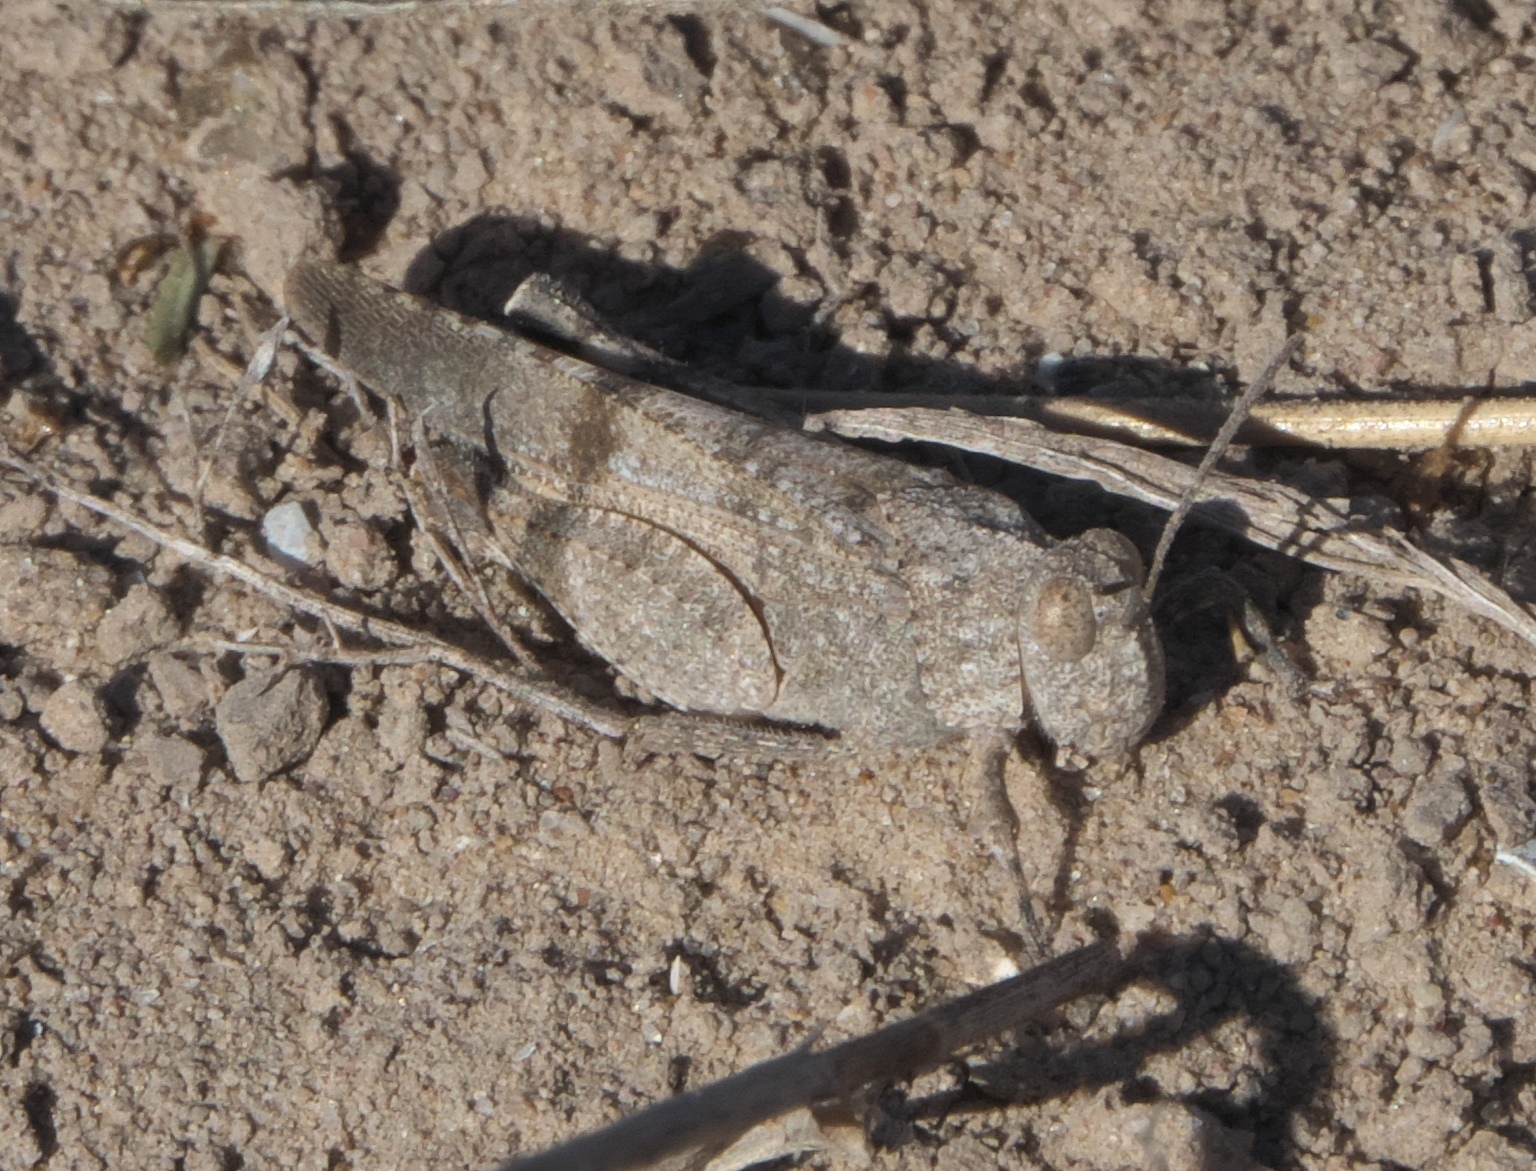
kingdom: Animalia
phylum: Arthropoda
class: Insecta
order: Orthoptera
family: Acrididae
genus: Lactista
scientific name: Lactista azteca
